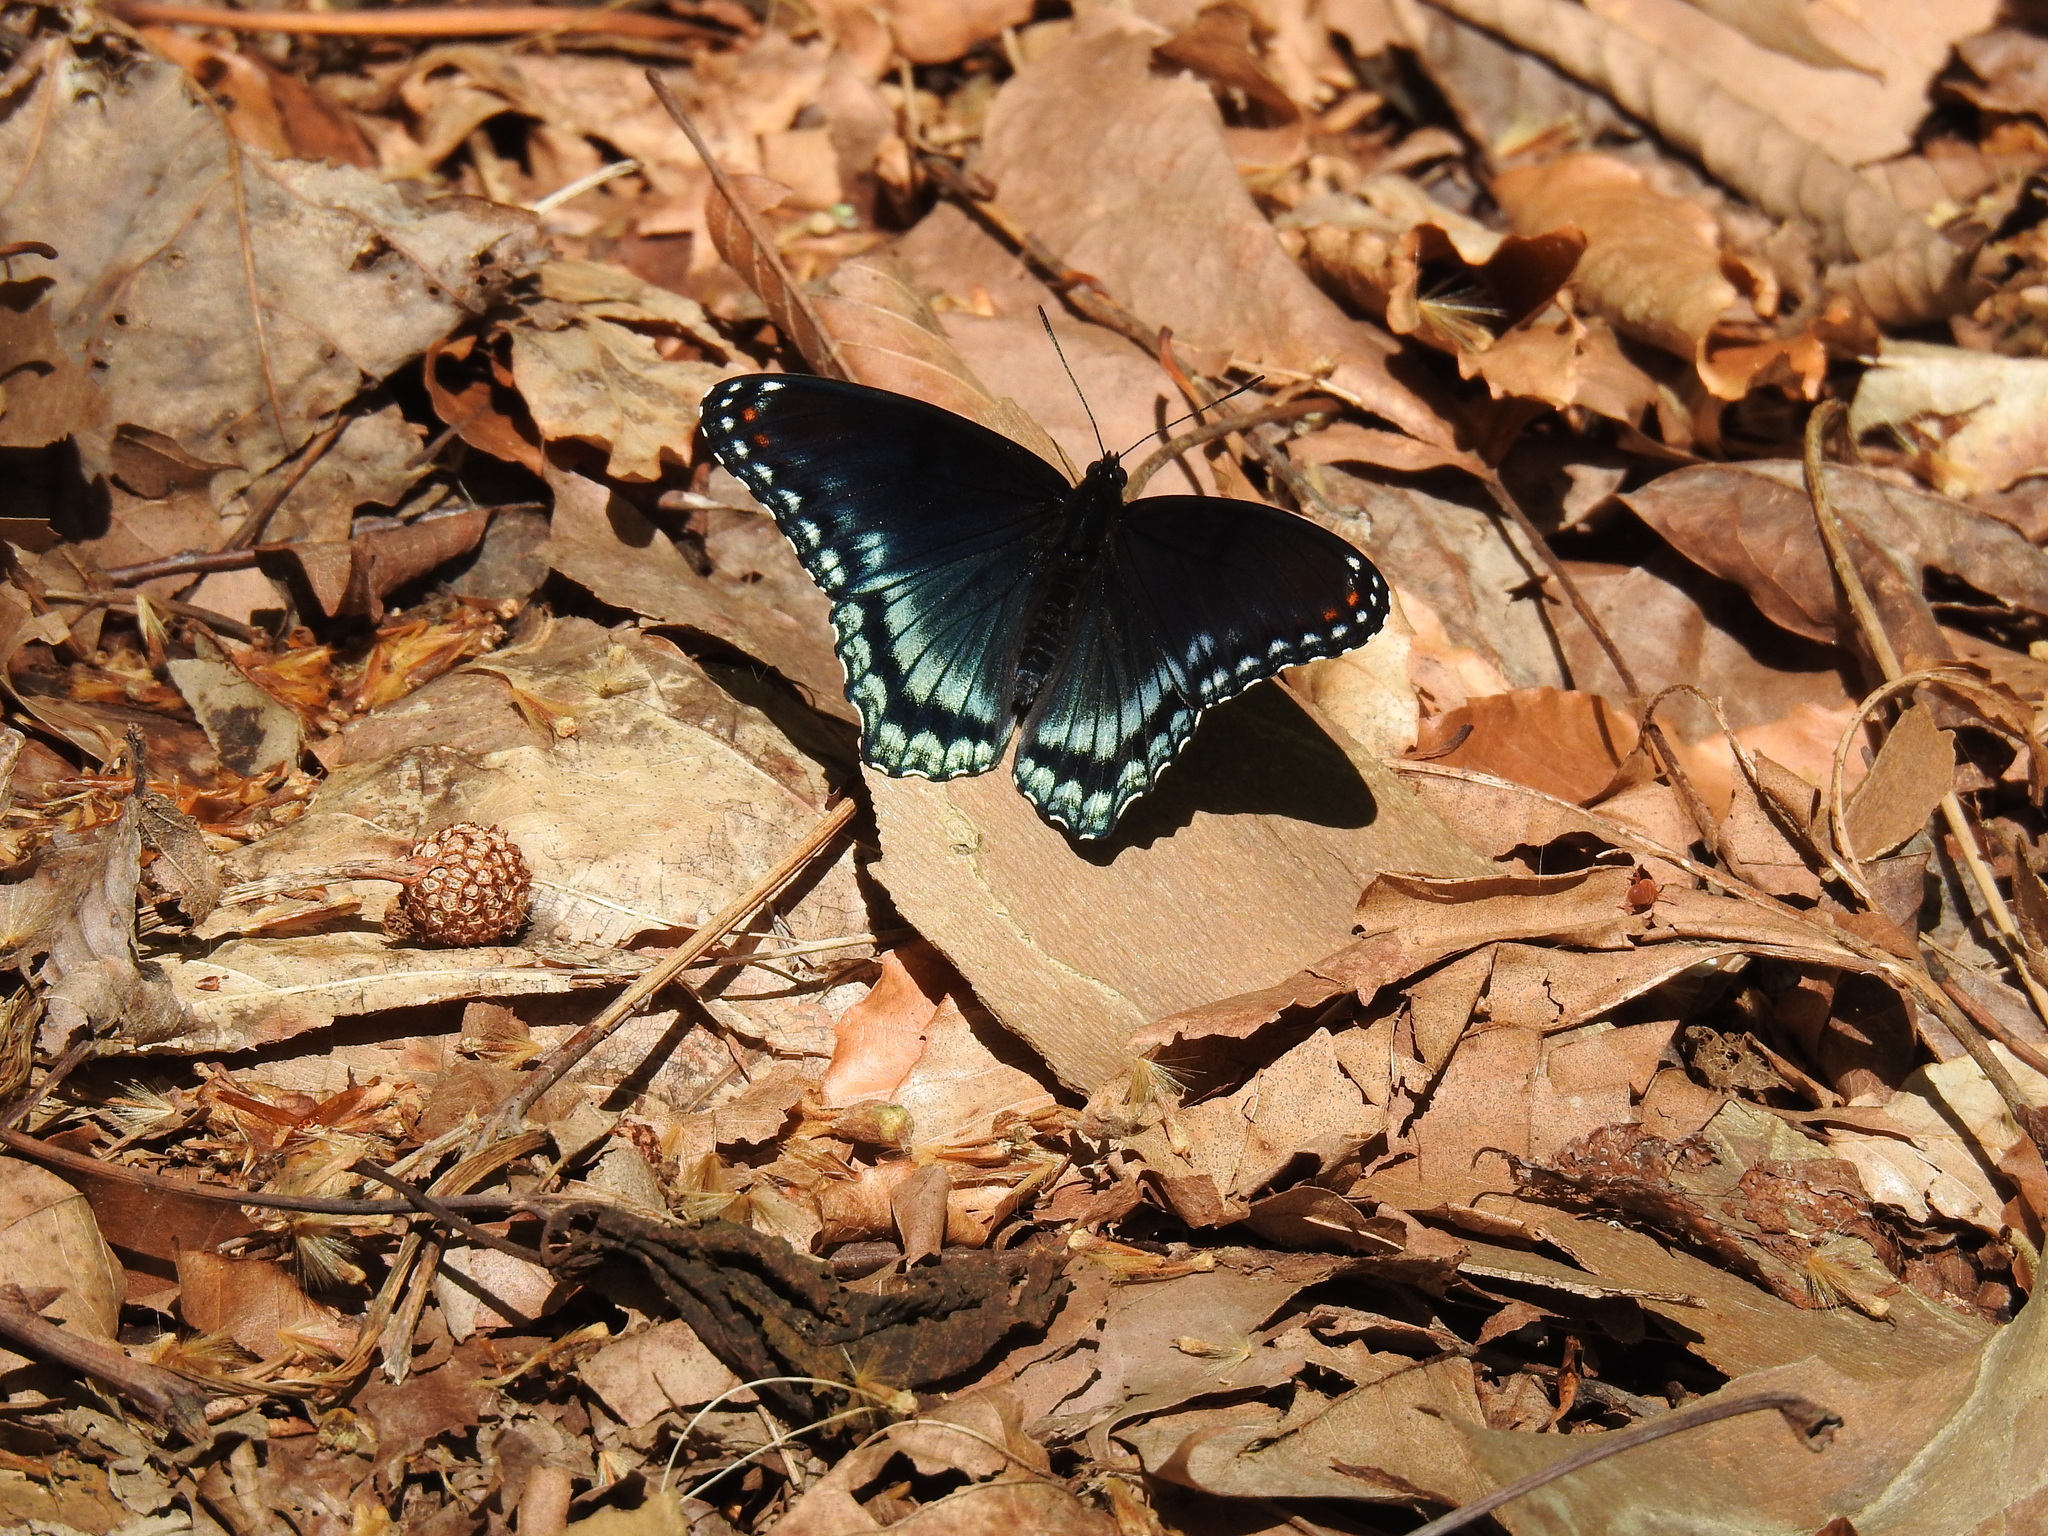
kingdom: Animalia
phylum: Arthropoda
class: Insecta
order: Lepidoptera
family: Nymphalidae
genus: Limenitis
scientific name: Limenitis astyanax
